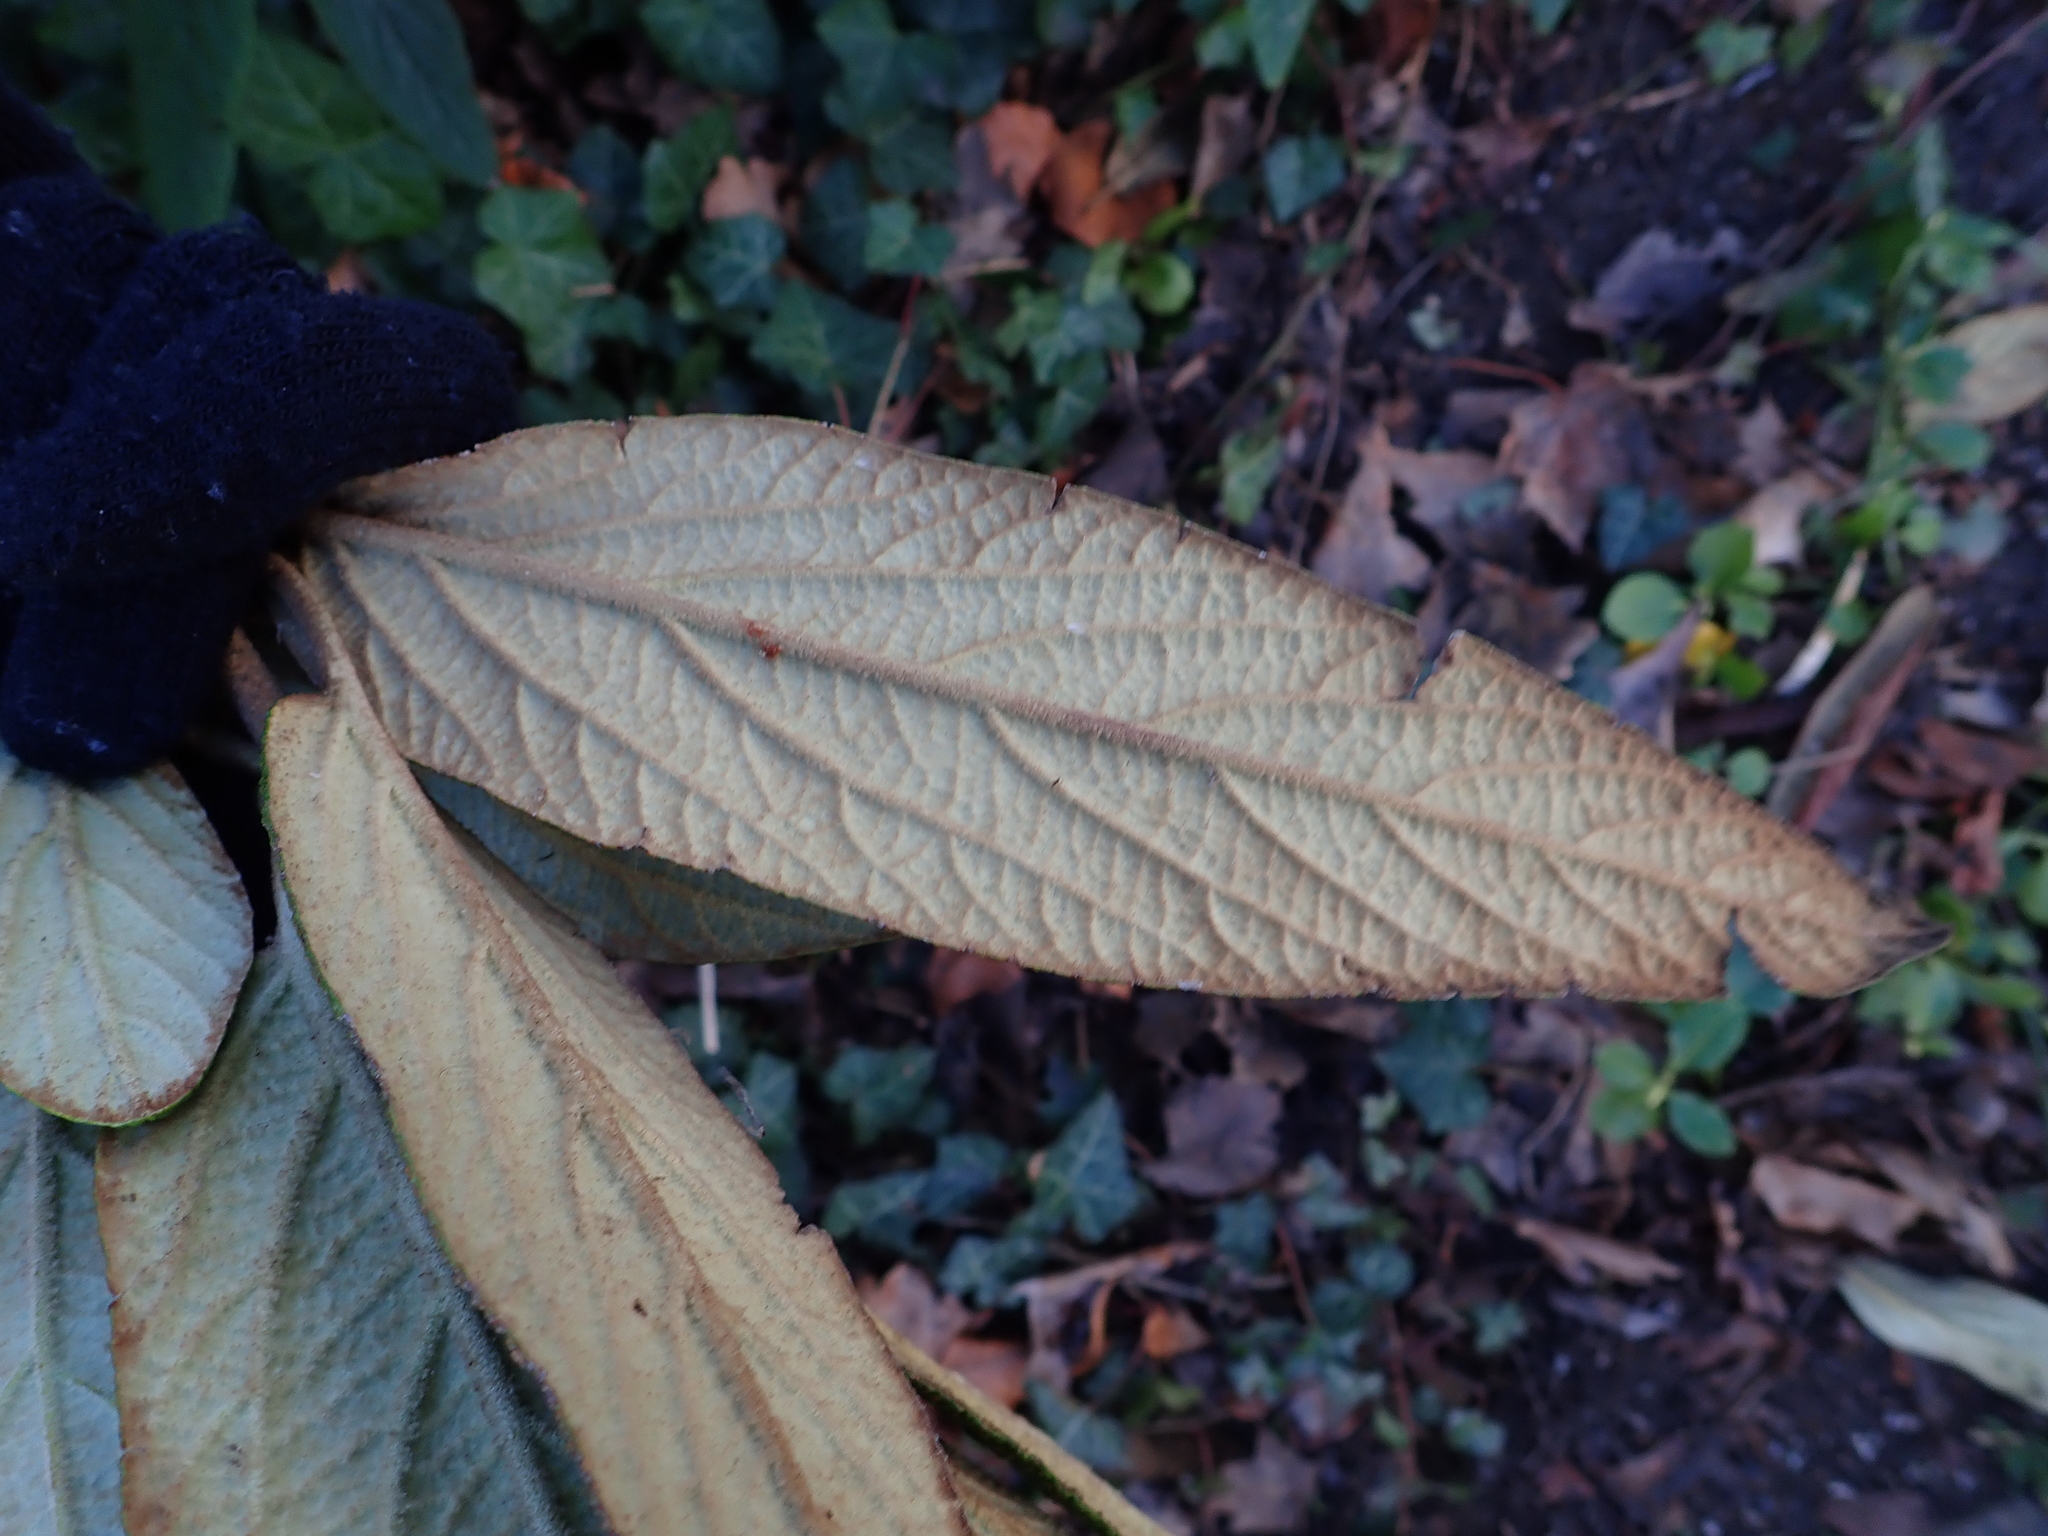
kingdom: Plantae
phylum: Tracheophyta
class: Magnoliopsida
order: Dipsacales
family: Viburnaceae
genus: Viburnum
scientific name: Viburnum rhytidophyllum
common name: Wrinkled viburnum
